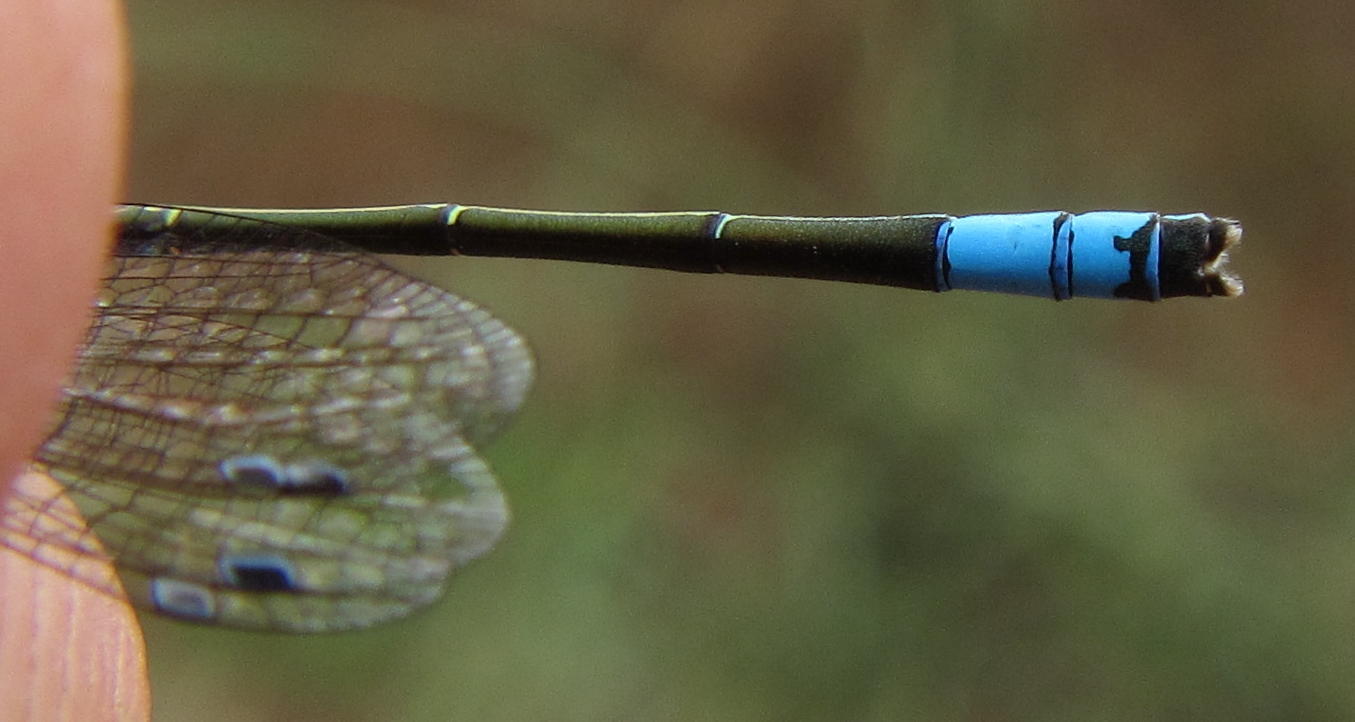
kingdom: Animalia
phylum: Arthropoda
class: Insecta
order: Odonata
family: Coenagrionidae
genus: Proischnura
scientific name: Proischnura rotundipennis
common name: Round-winged bluet
